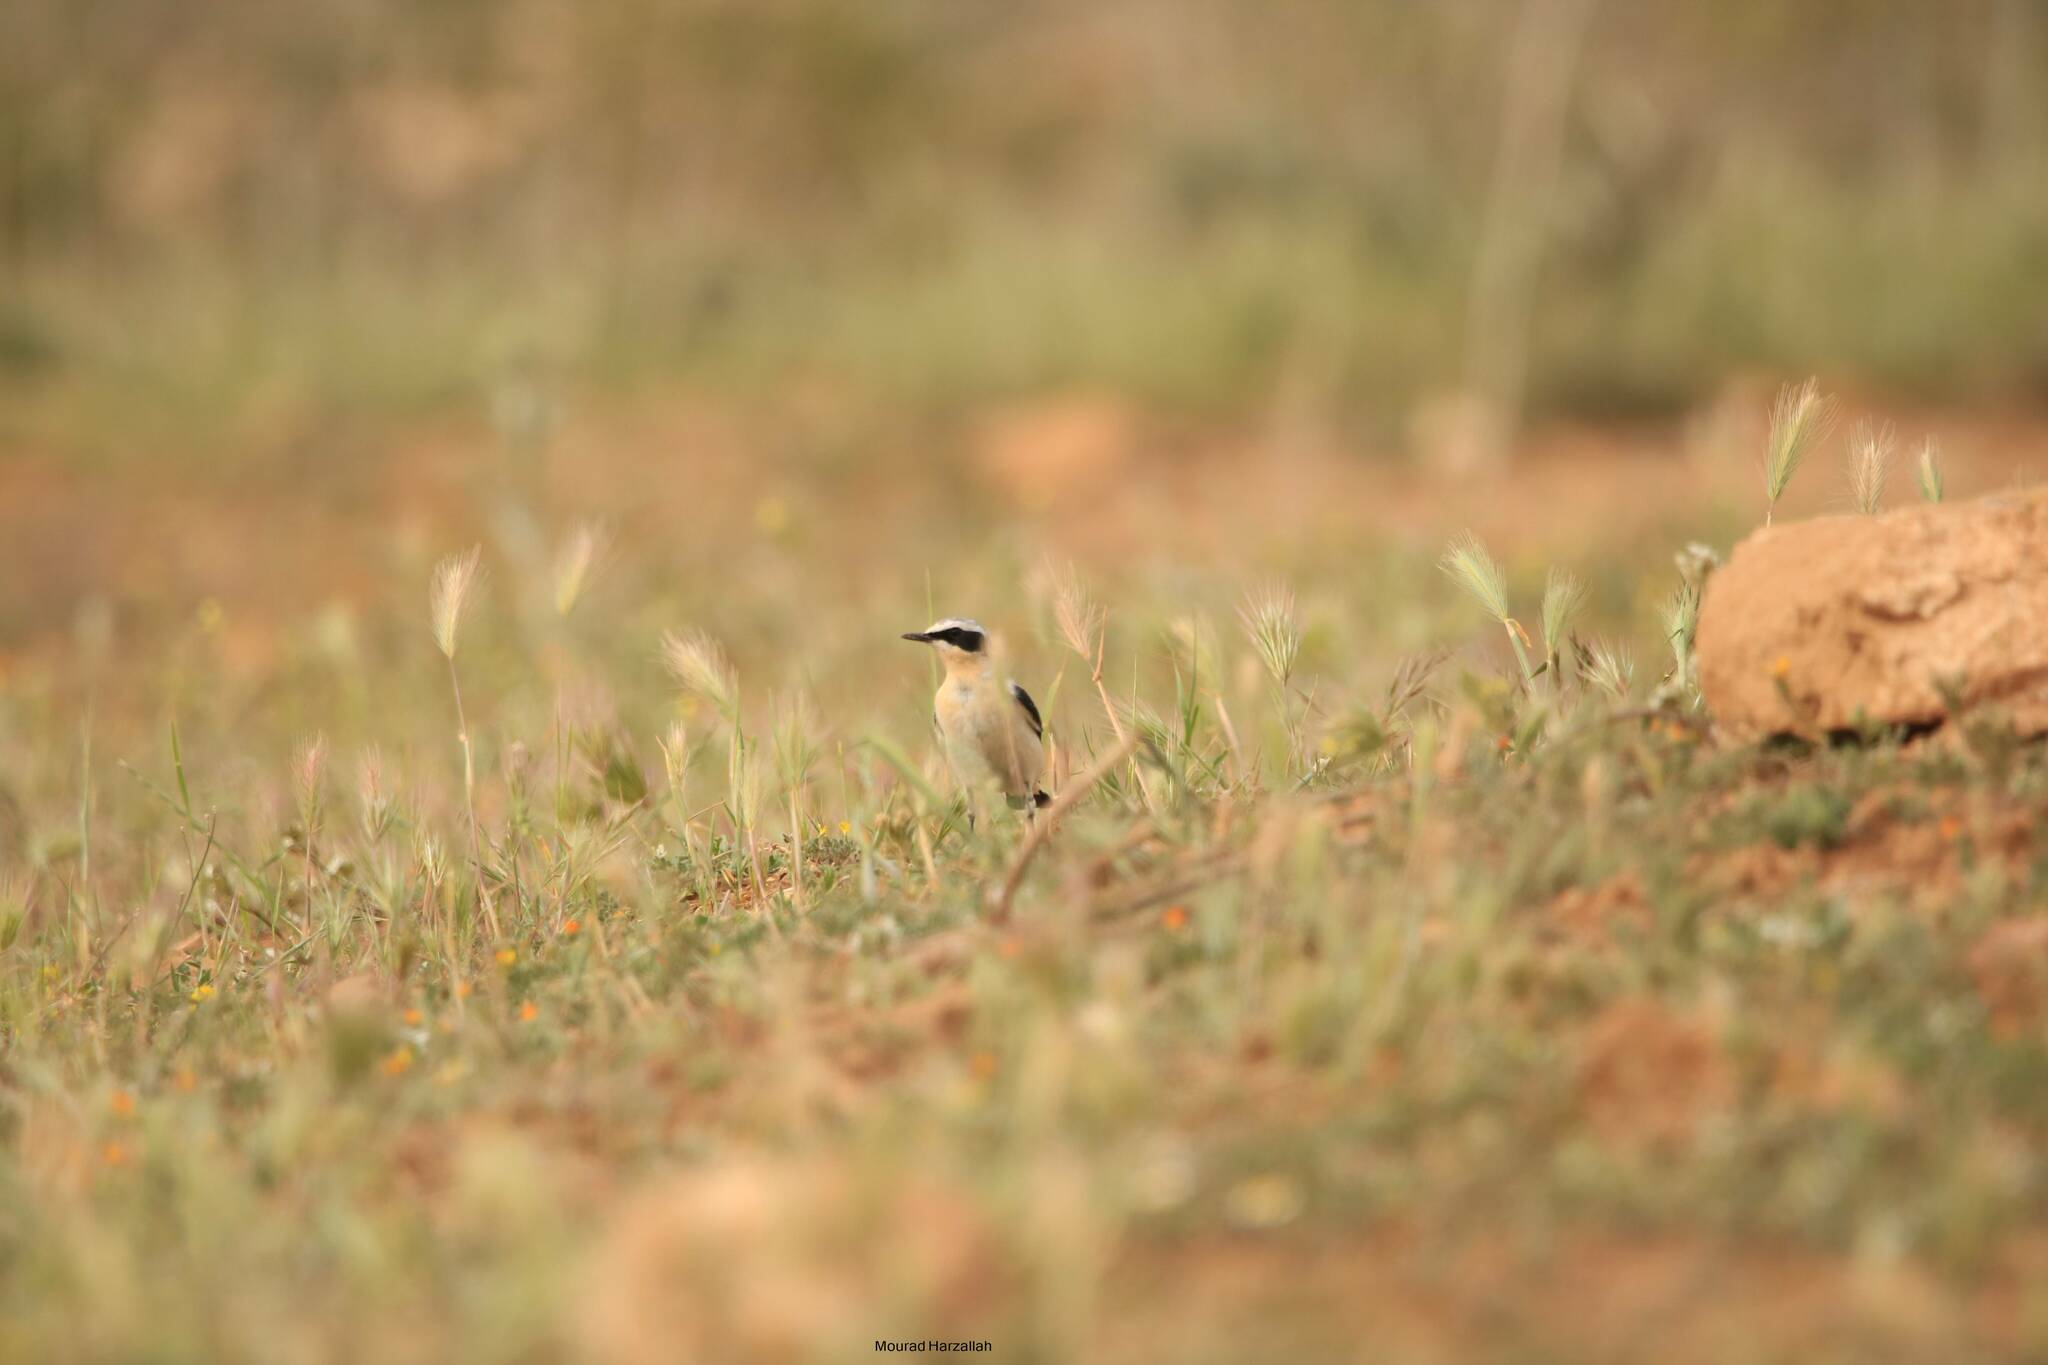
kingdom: Animalia
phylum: Chordata
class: Aves
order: Passeriformes
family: Muscicapidae
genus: Oenanthe
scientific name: Oenanthe hispanica
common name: Black-eared wheatear
